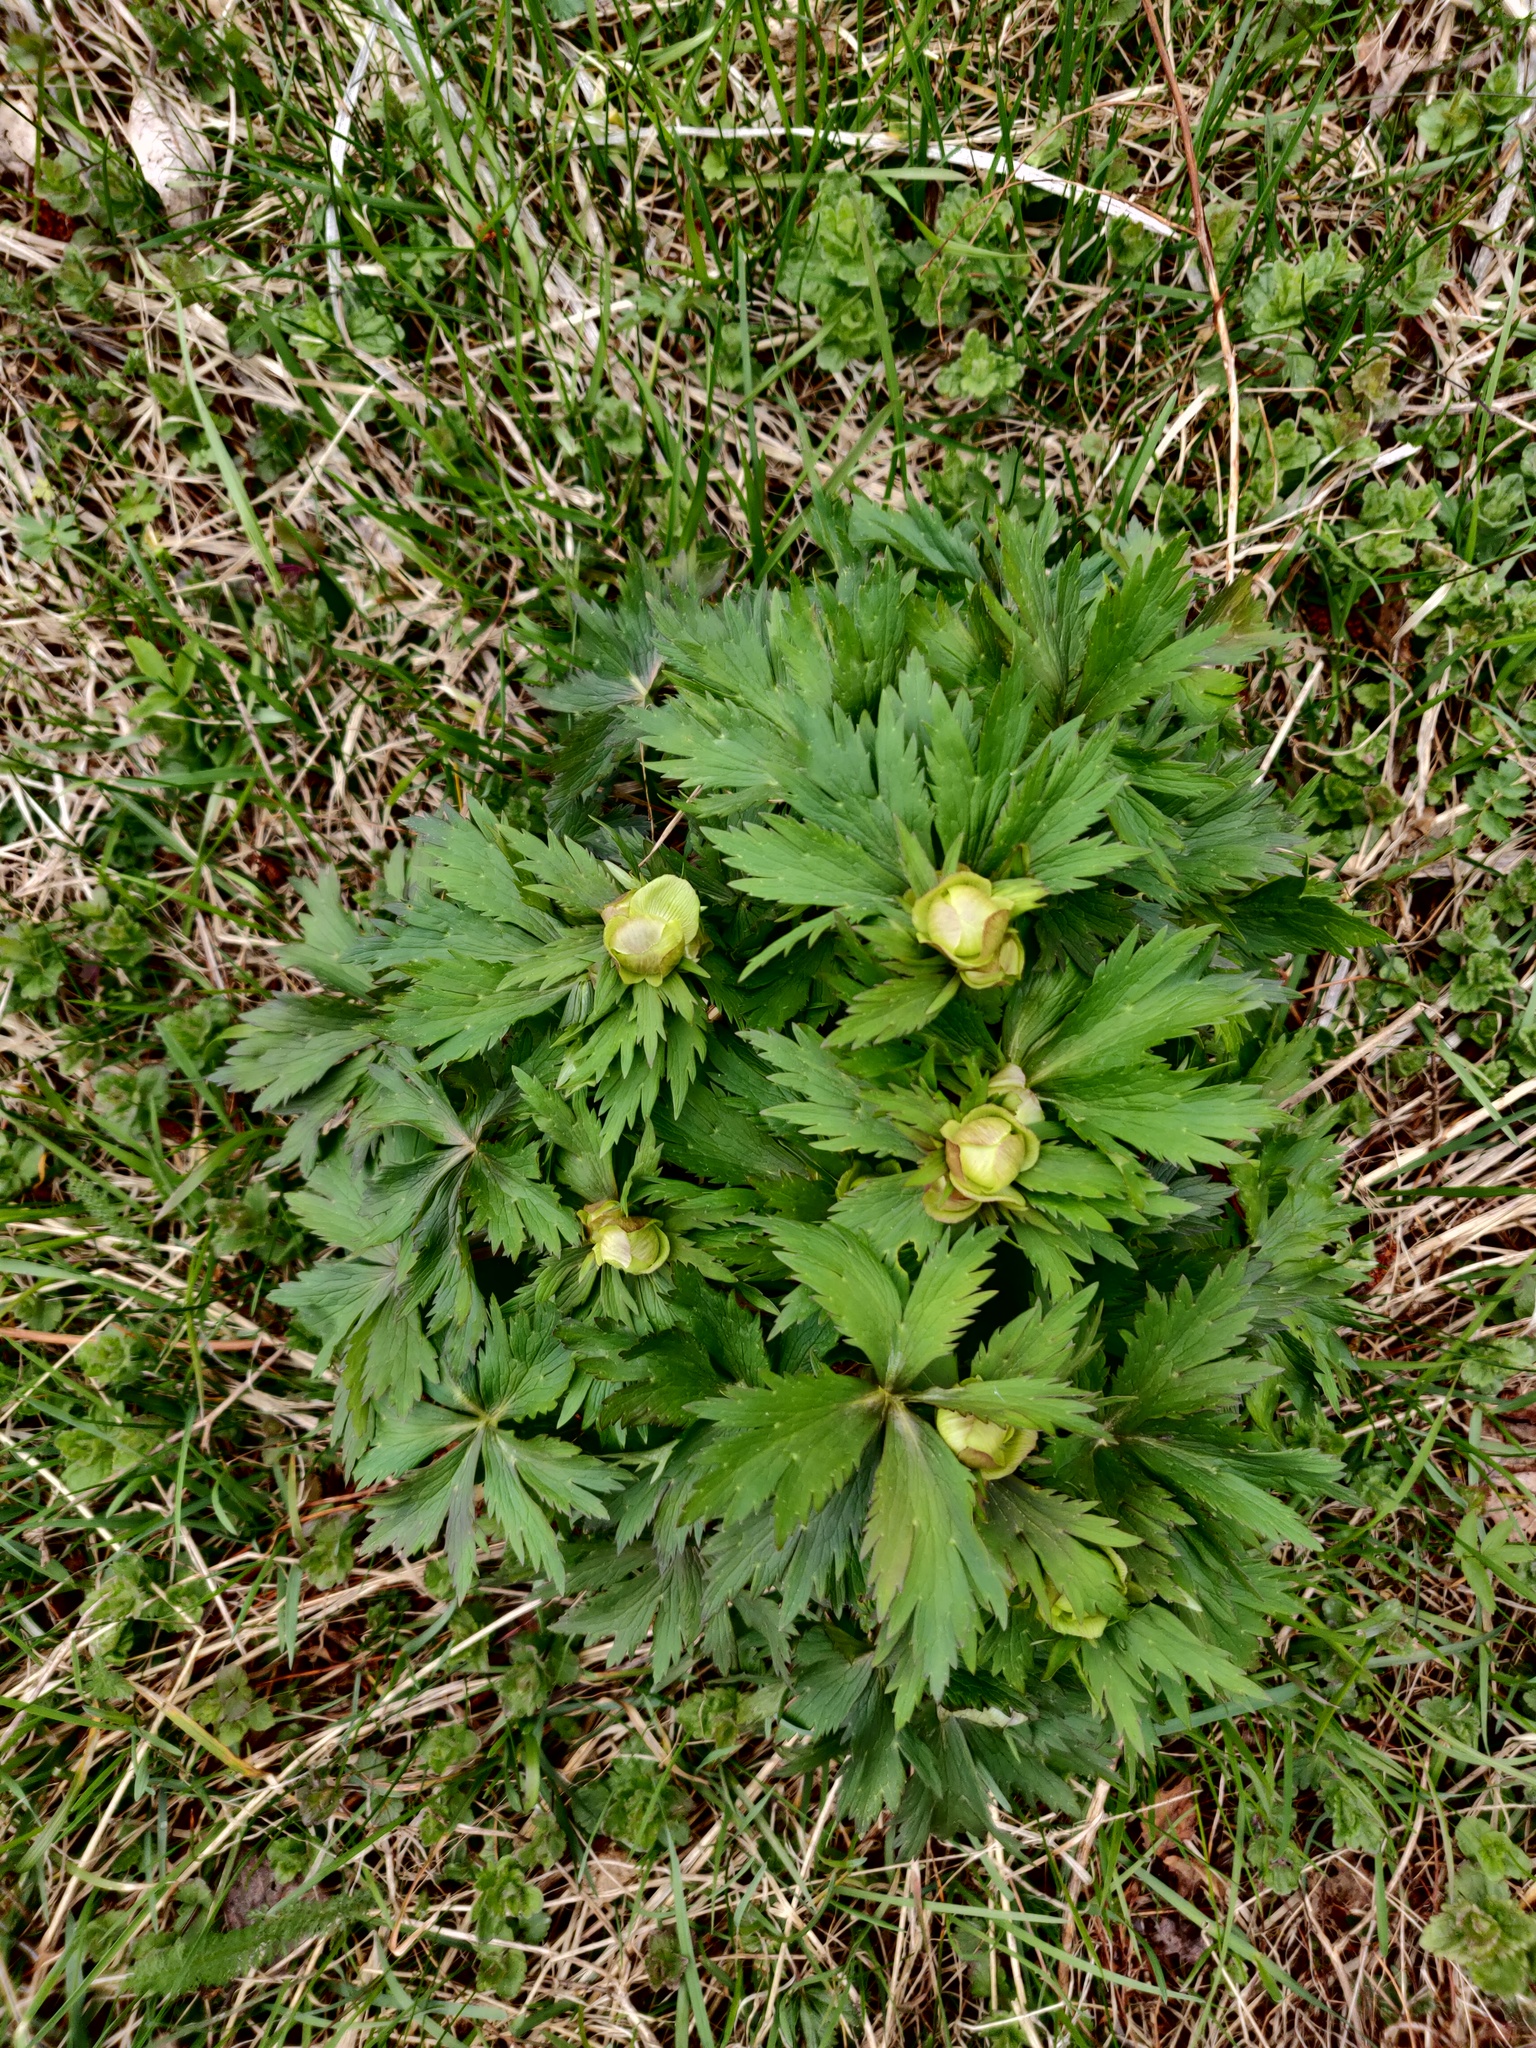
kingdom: Plantae
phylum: Tracheophyta
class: Magnoliopsida
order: Ranunculales
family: Ranunculaceae
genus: Trollius
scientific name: Trollius europaeus
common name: European globeflower
